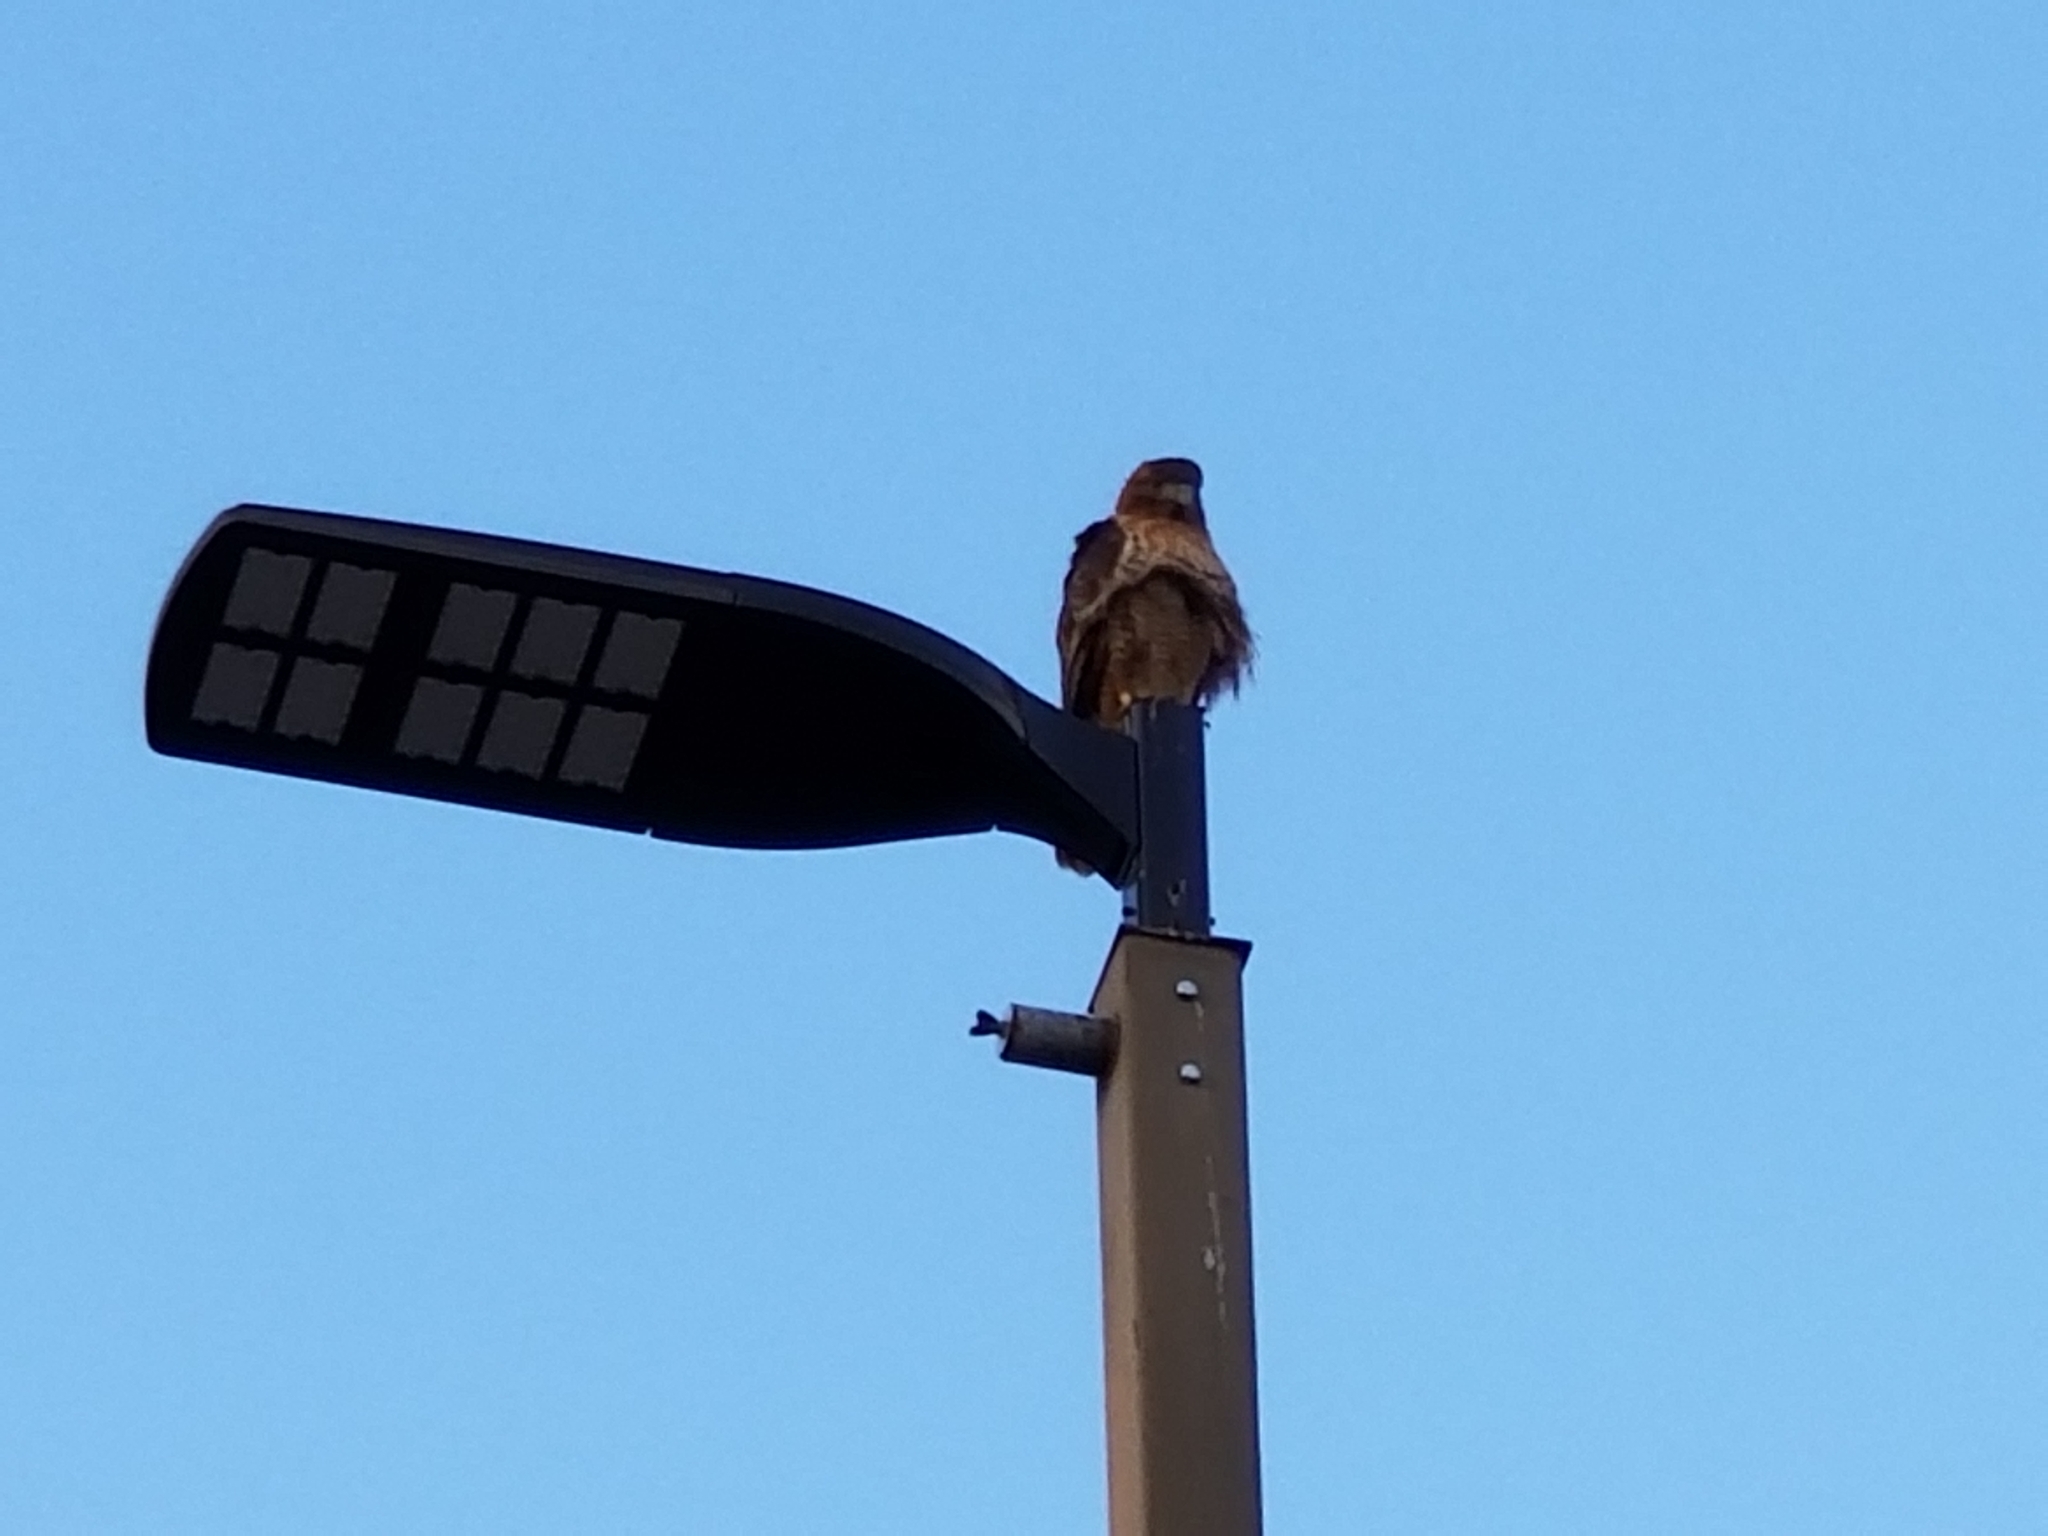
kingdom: Animalia
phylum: Chordata
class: Aves
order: Accipitriformes
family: Accipitridae
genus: Buteo
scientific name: Buteo jamaicensis
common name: Red-tailed hawk
